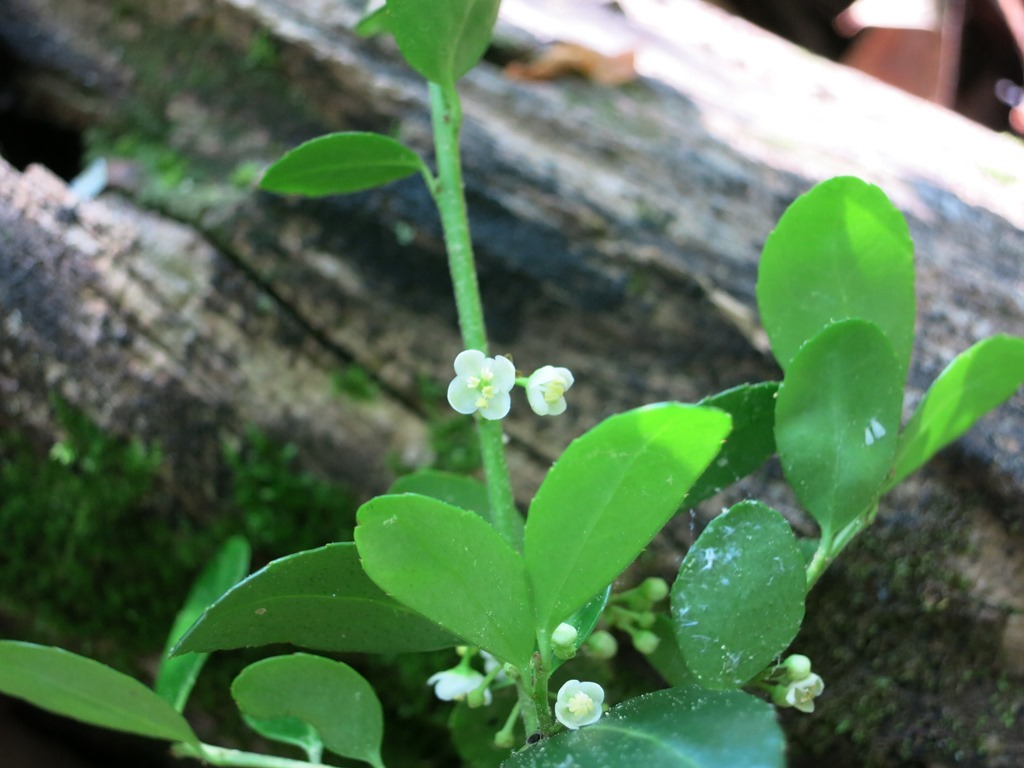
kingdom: Plantae
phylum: Tracheophyta
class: Magnoliopsida
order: Aquifoliales
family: Aquifoliaceae
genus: Ilex
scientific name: Ilex crenata
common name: Japanese holly
